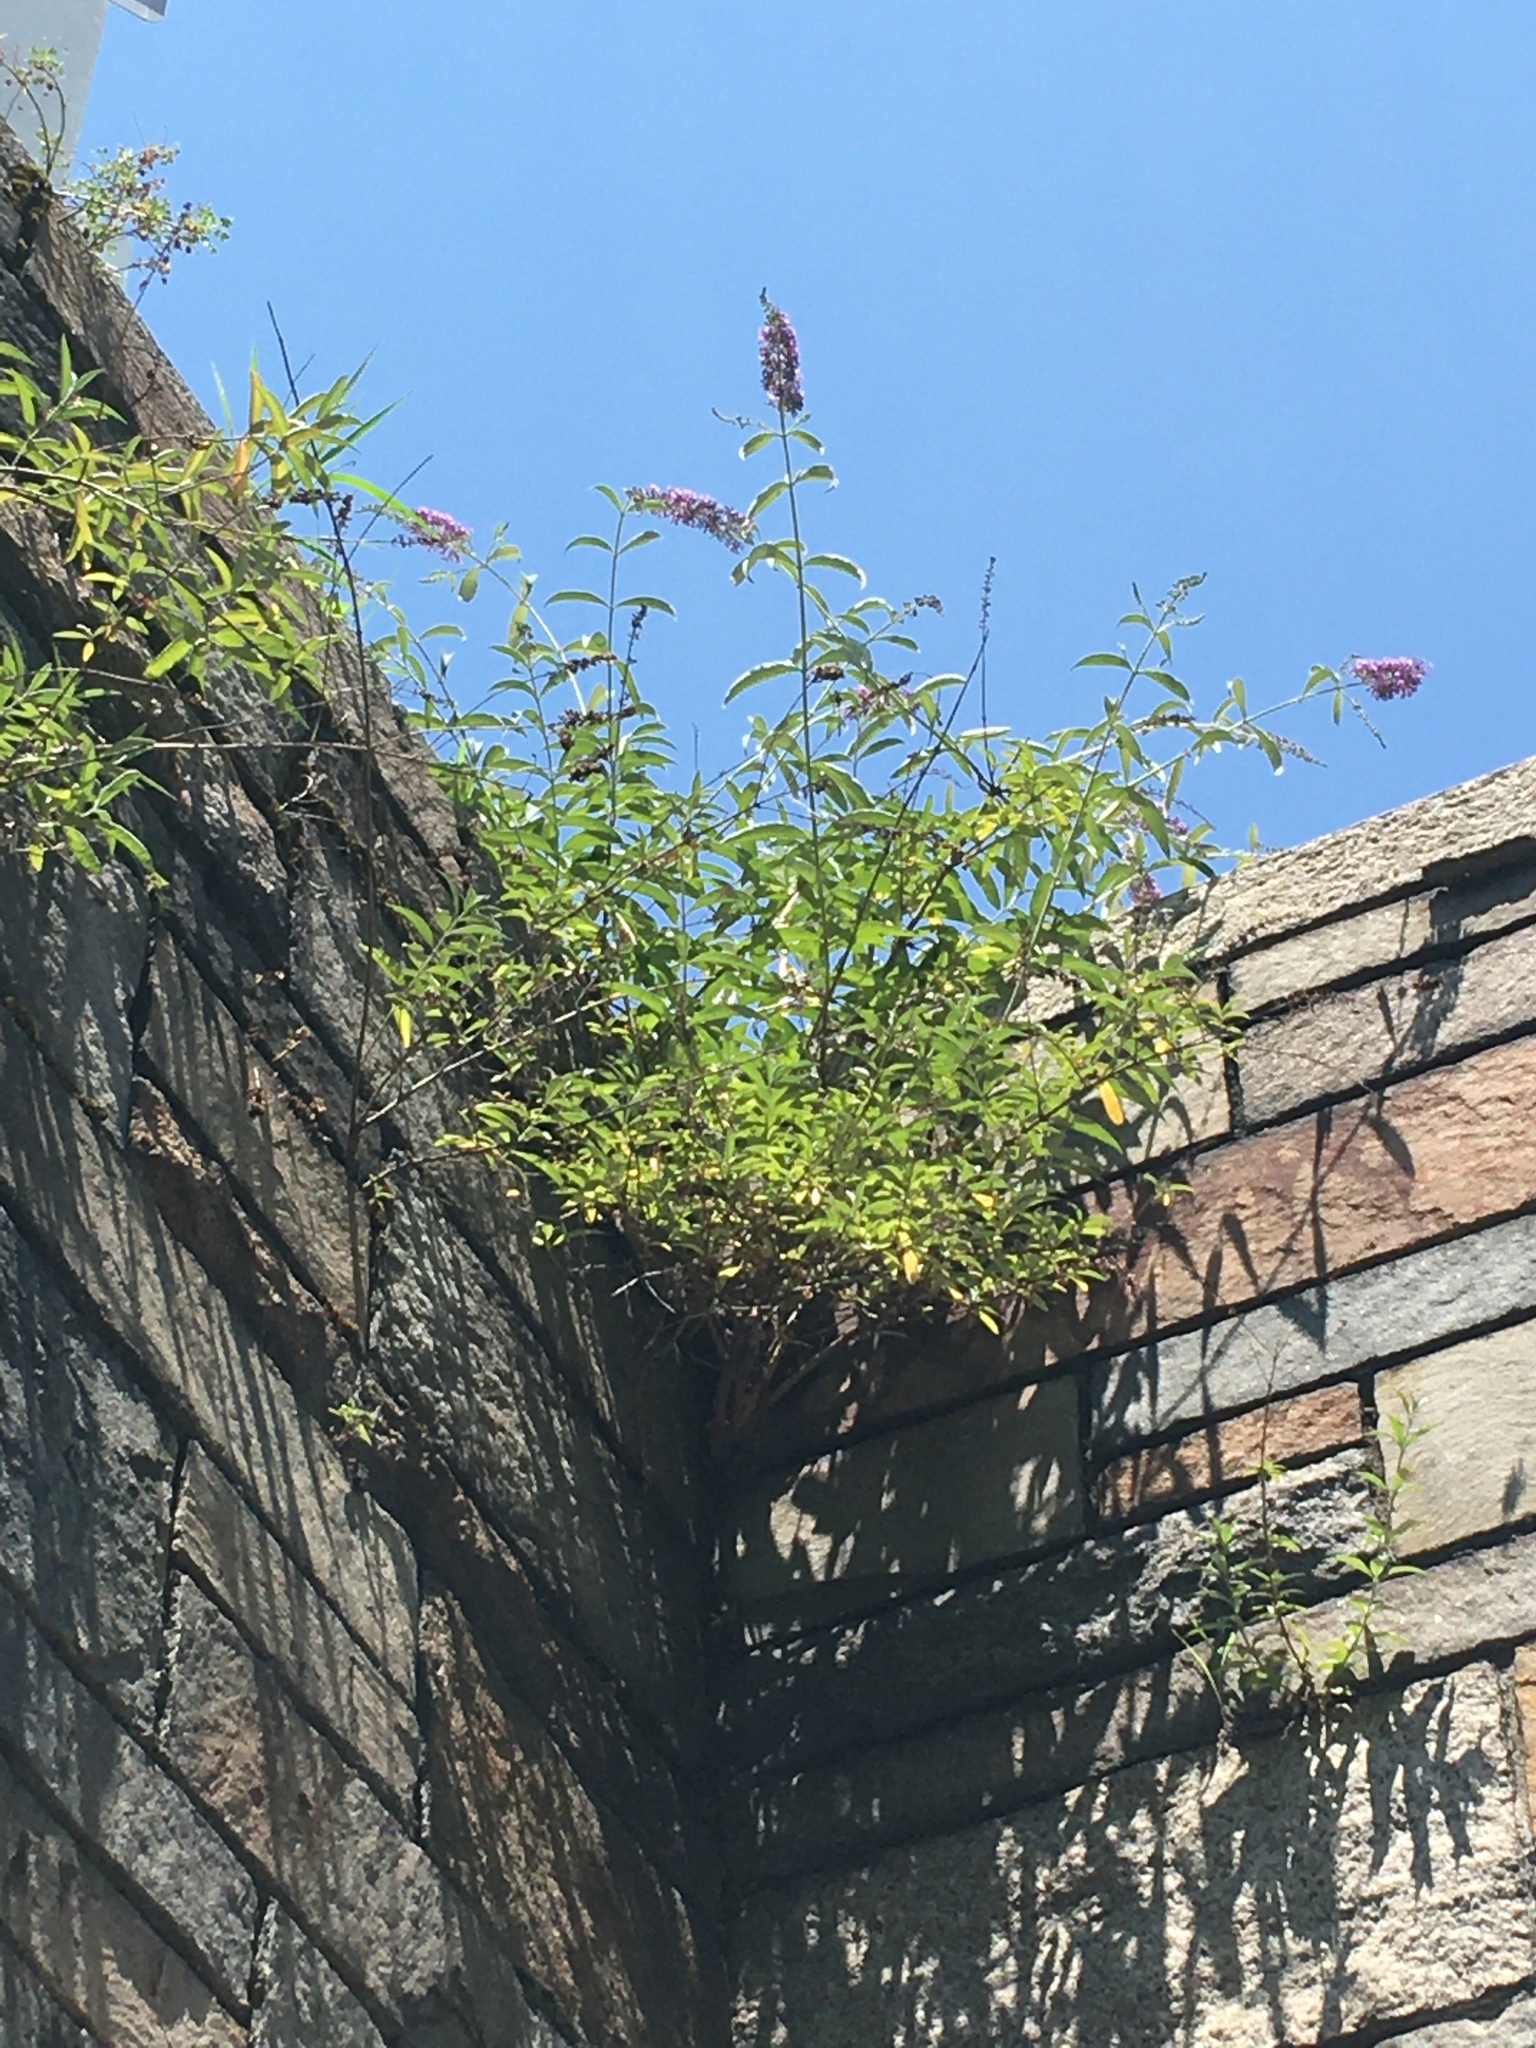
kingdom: Plantae
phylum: Tracheophyta
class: Magnoliopsida
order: Lamiales
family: Scrophulariaceae
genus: Buddleja
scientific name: Buddleja davidii
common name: Butterfly-bush
